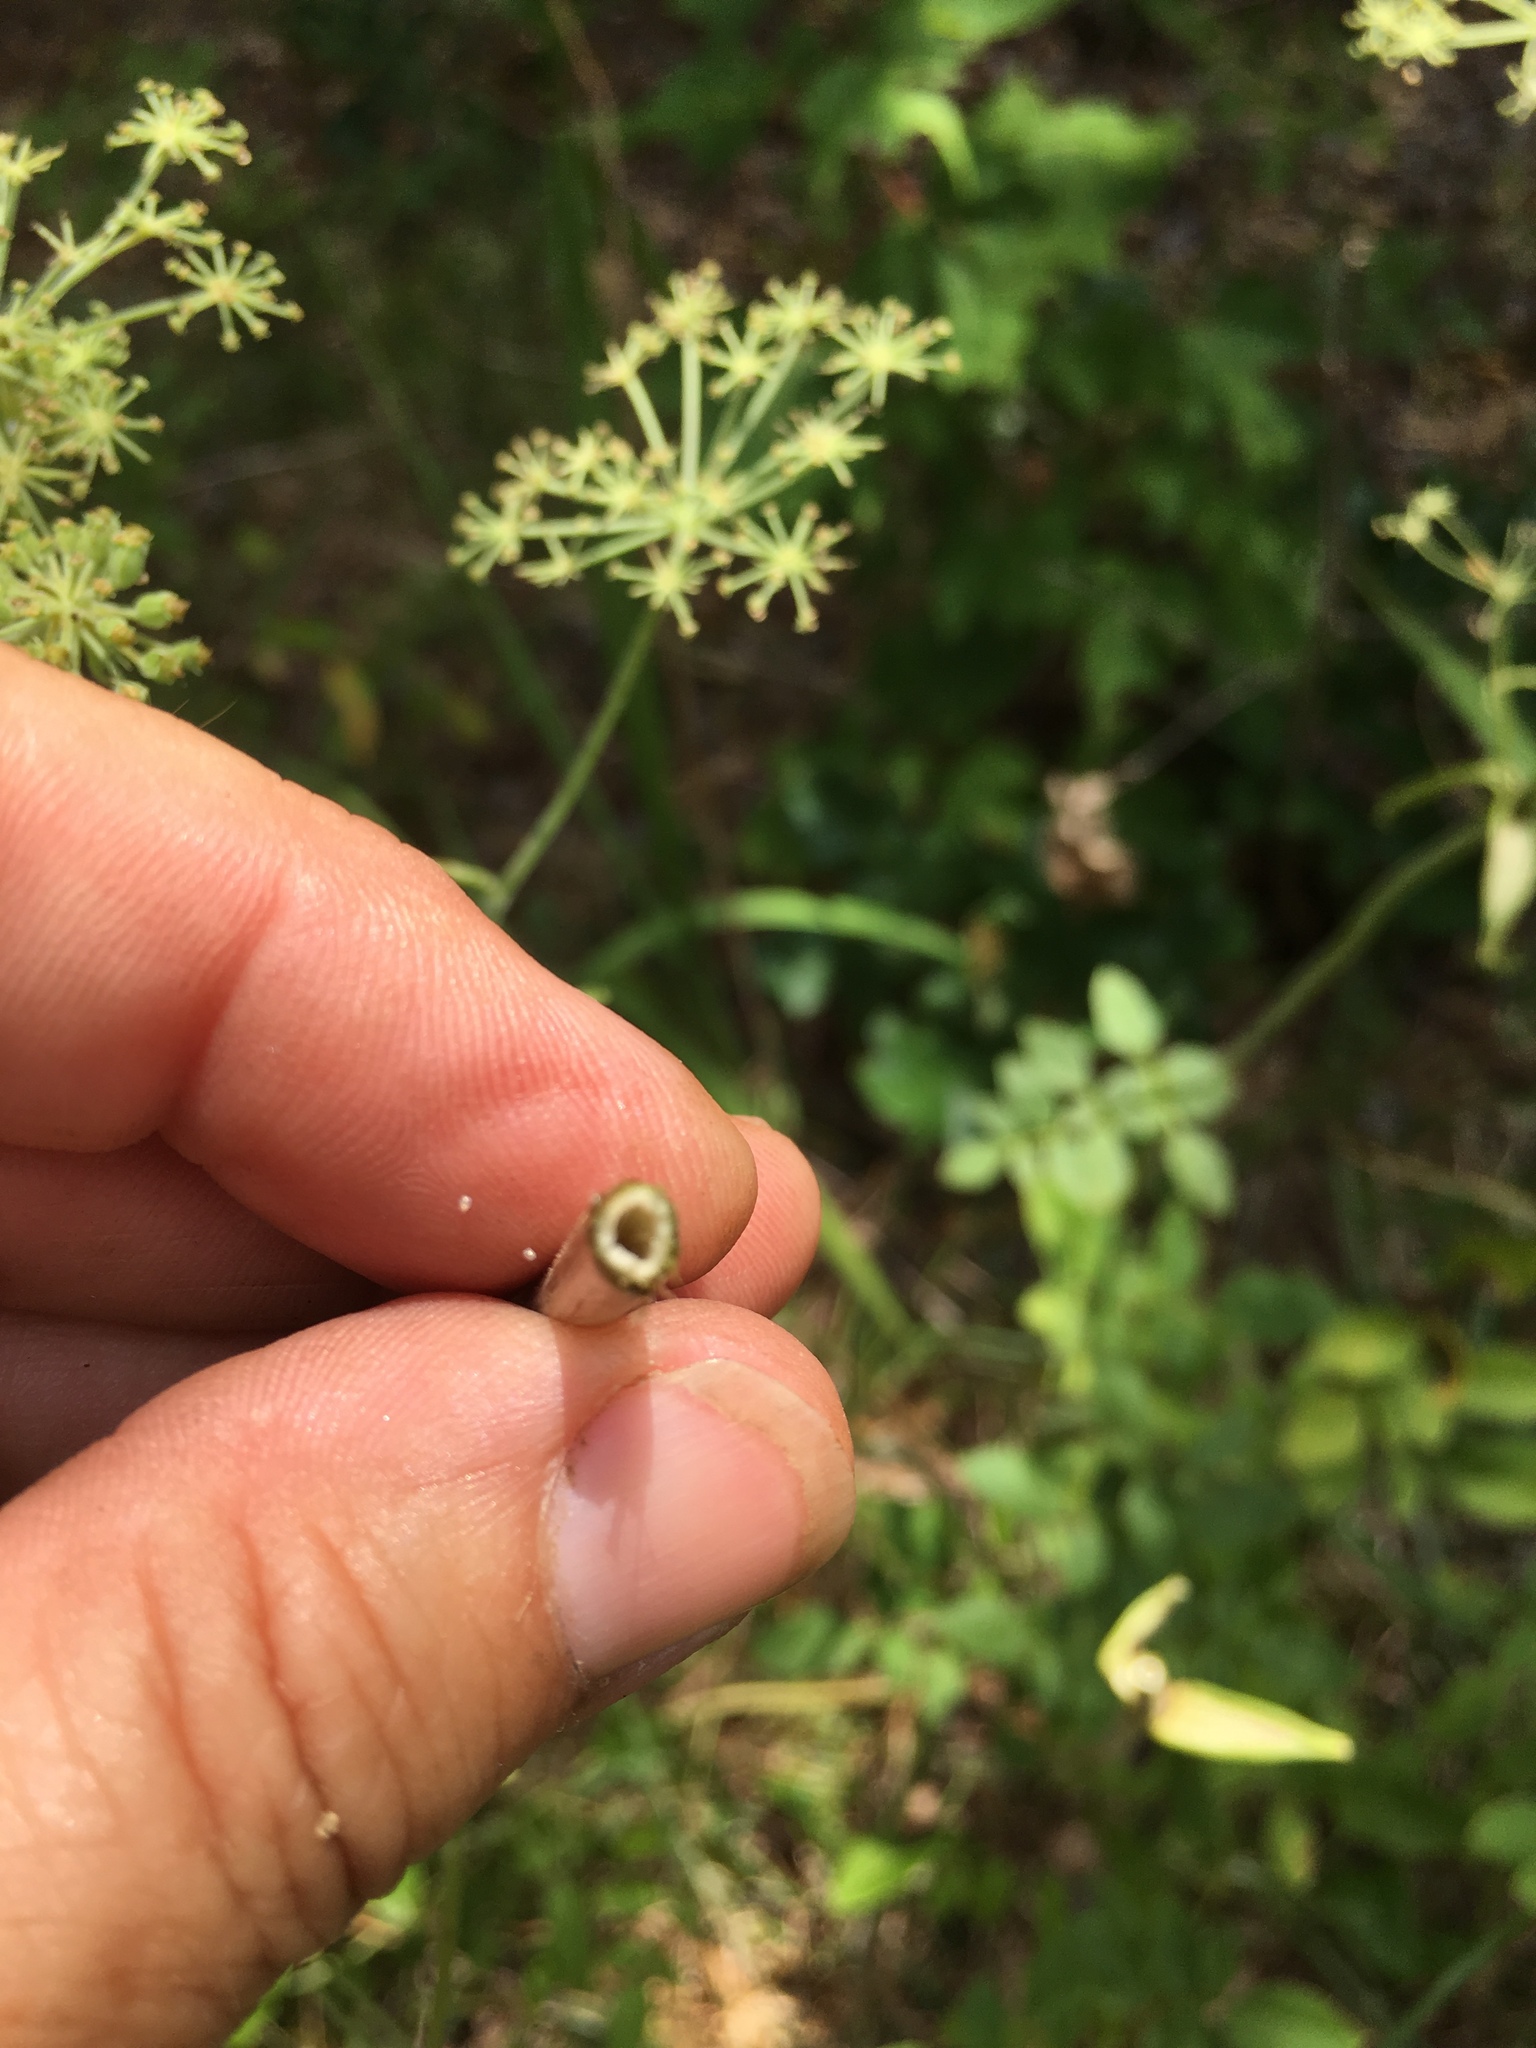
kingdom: Plantae
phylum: Tracheophyta
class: Magnoliopsida
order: Apiales
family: Apiaceae
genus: Angelica
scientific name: Angelica venenosa
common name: Hairy angelica
